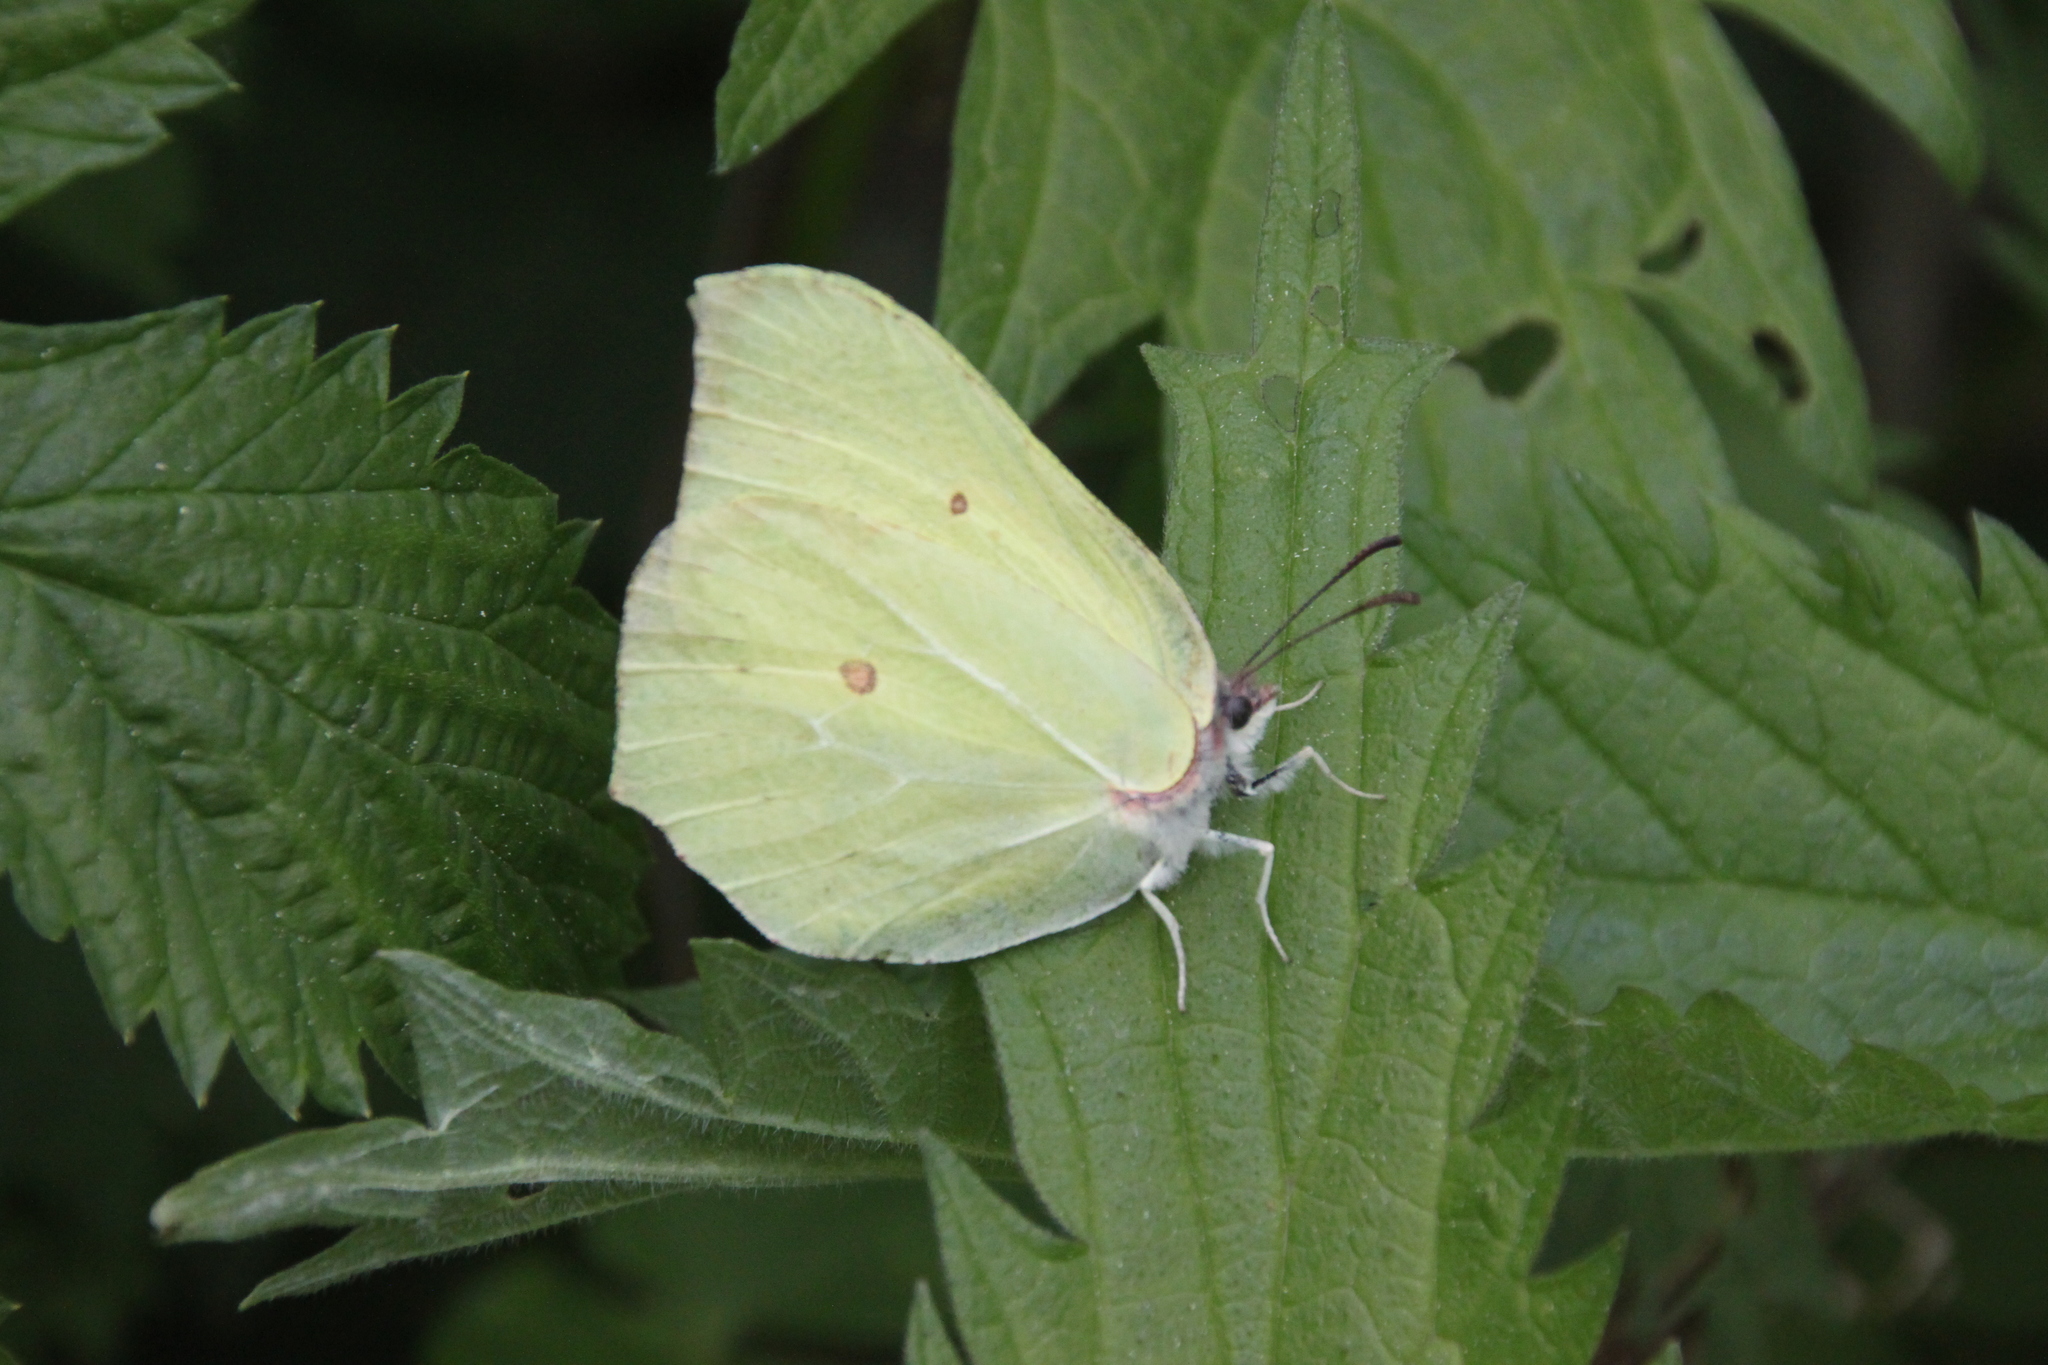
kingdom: Animalia
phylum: Arthropoda
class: Insecta
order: Lepidoptera
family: Pieridae
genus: Gonepteryx
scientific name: Gonepteryx rhamni
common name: Brimstone
